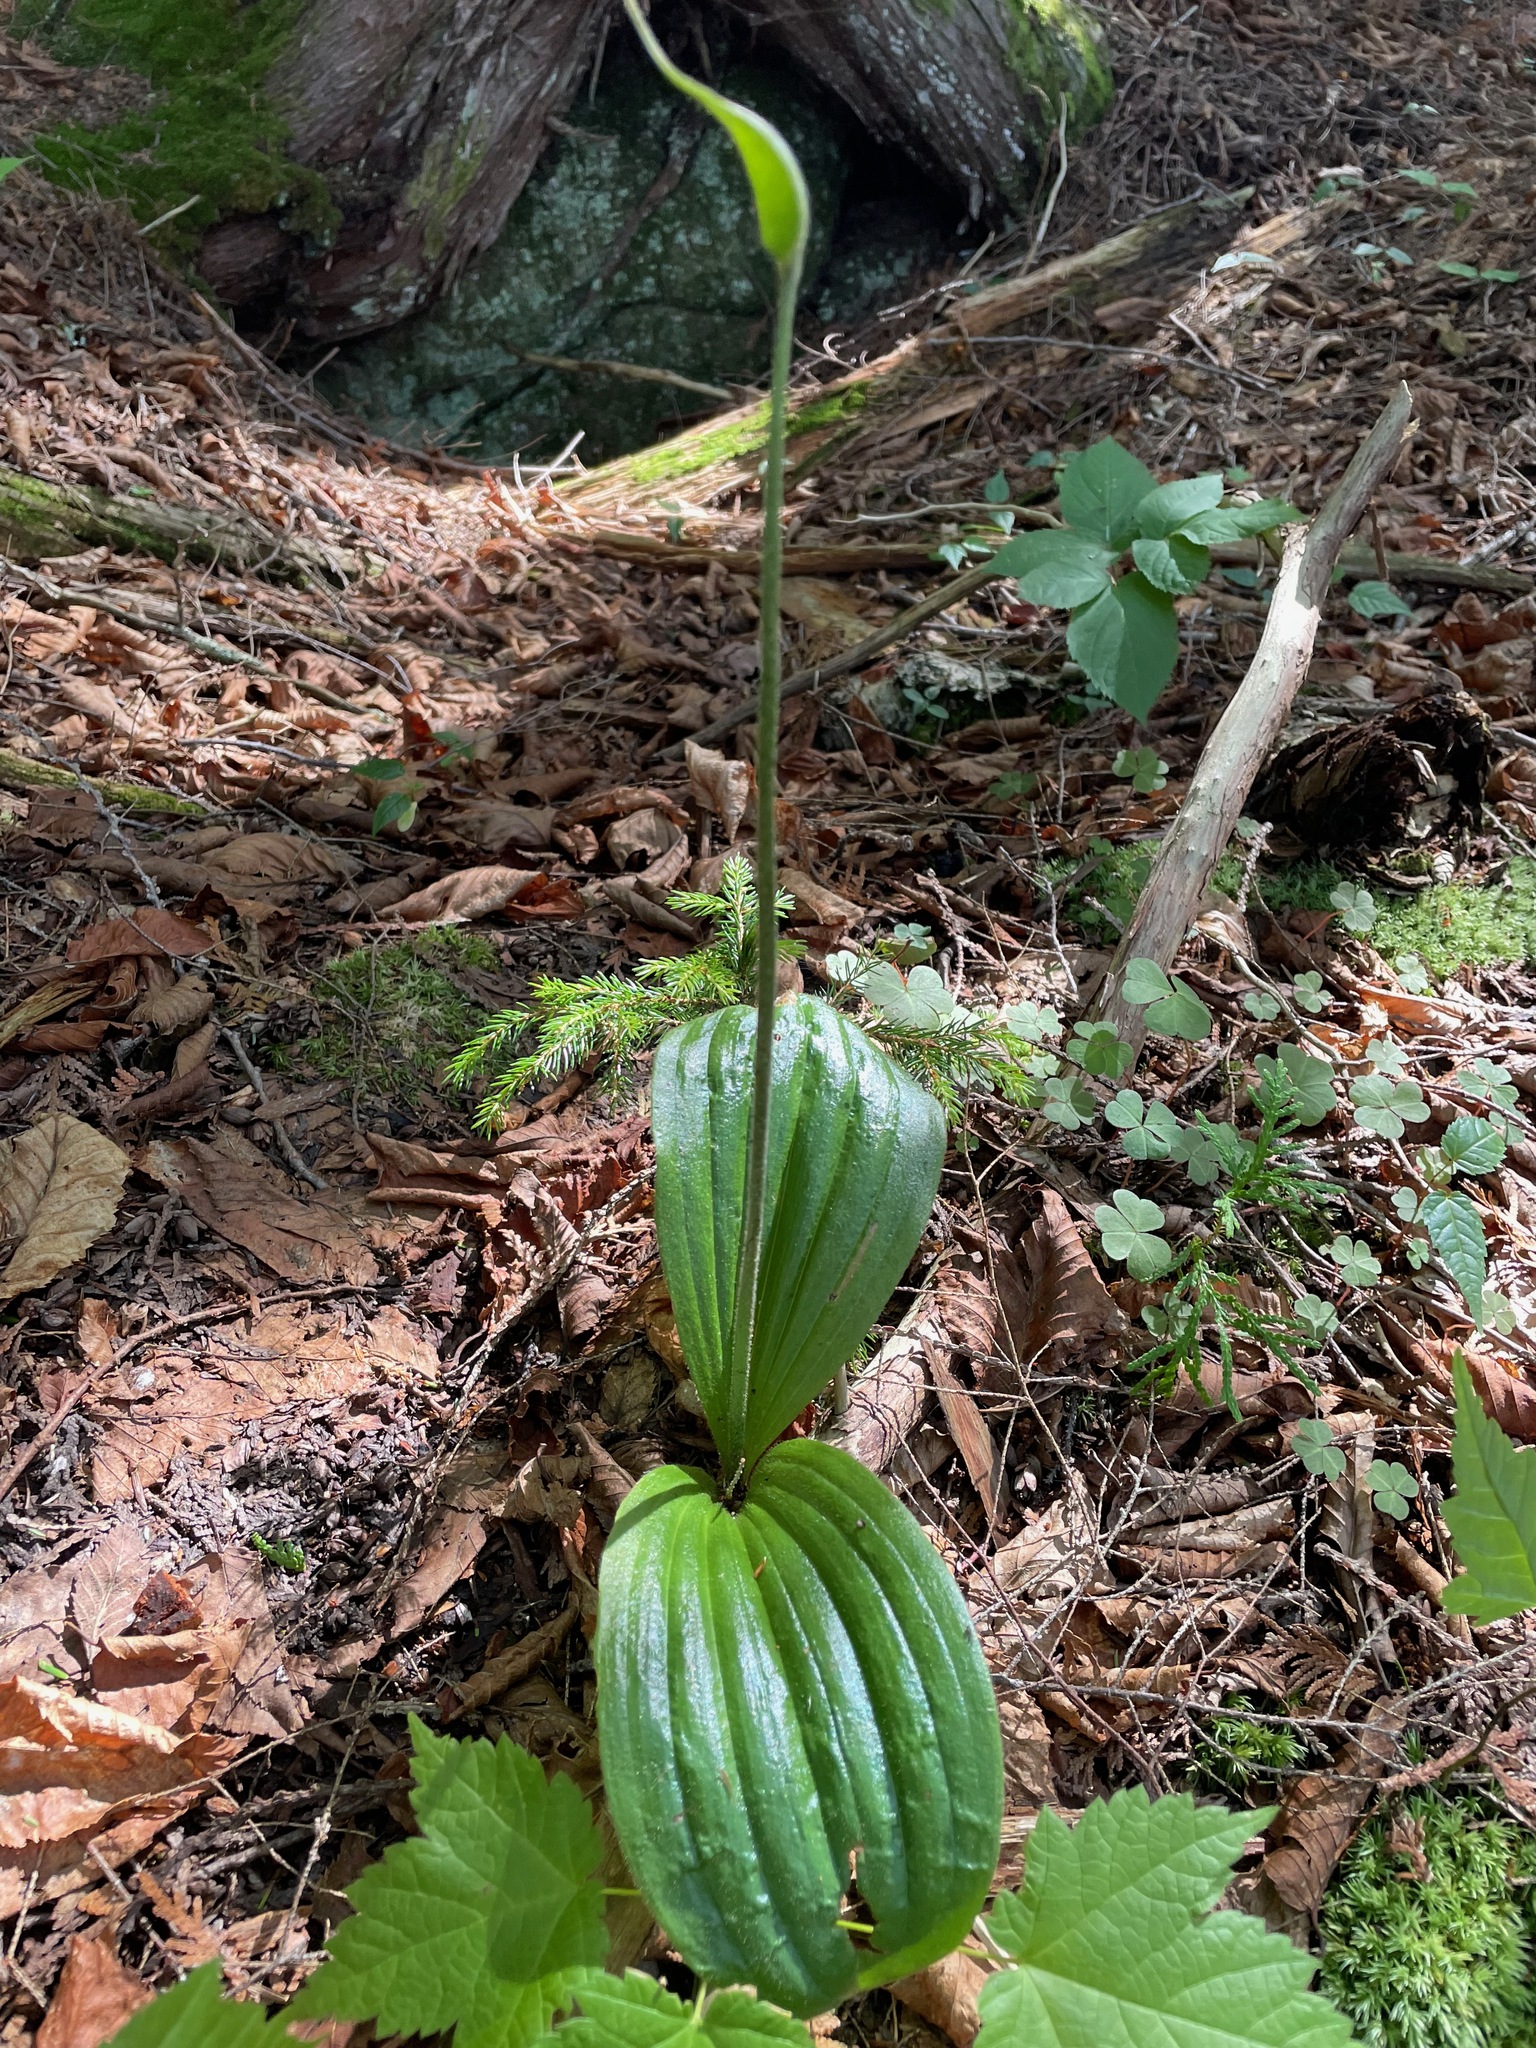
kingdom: Plantae
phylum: Tracheophyta
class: Liliopsida
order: Asparagales
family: Orchidaceae
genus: Cypripedium
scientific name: Cypripedium acaule
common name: Pink lady's-slipper
